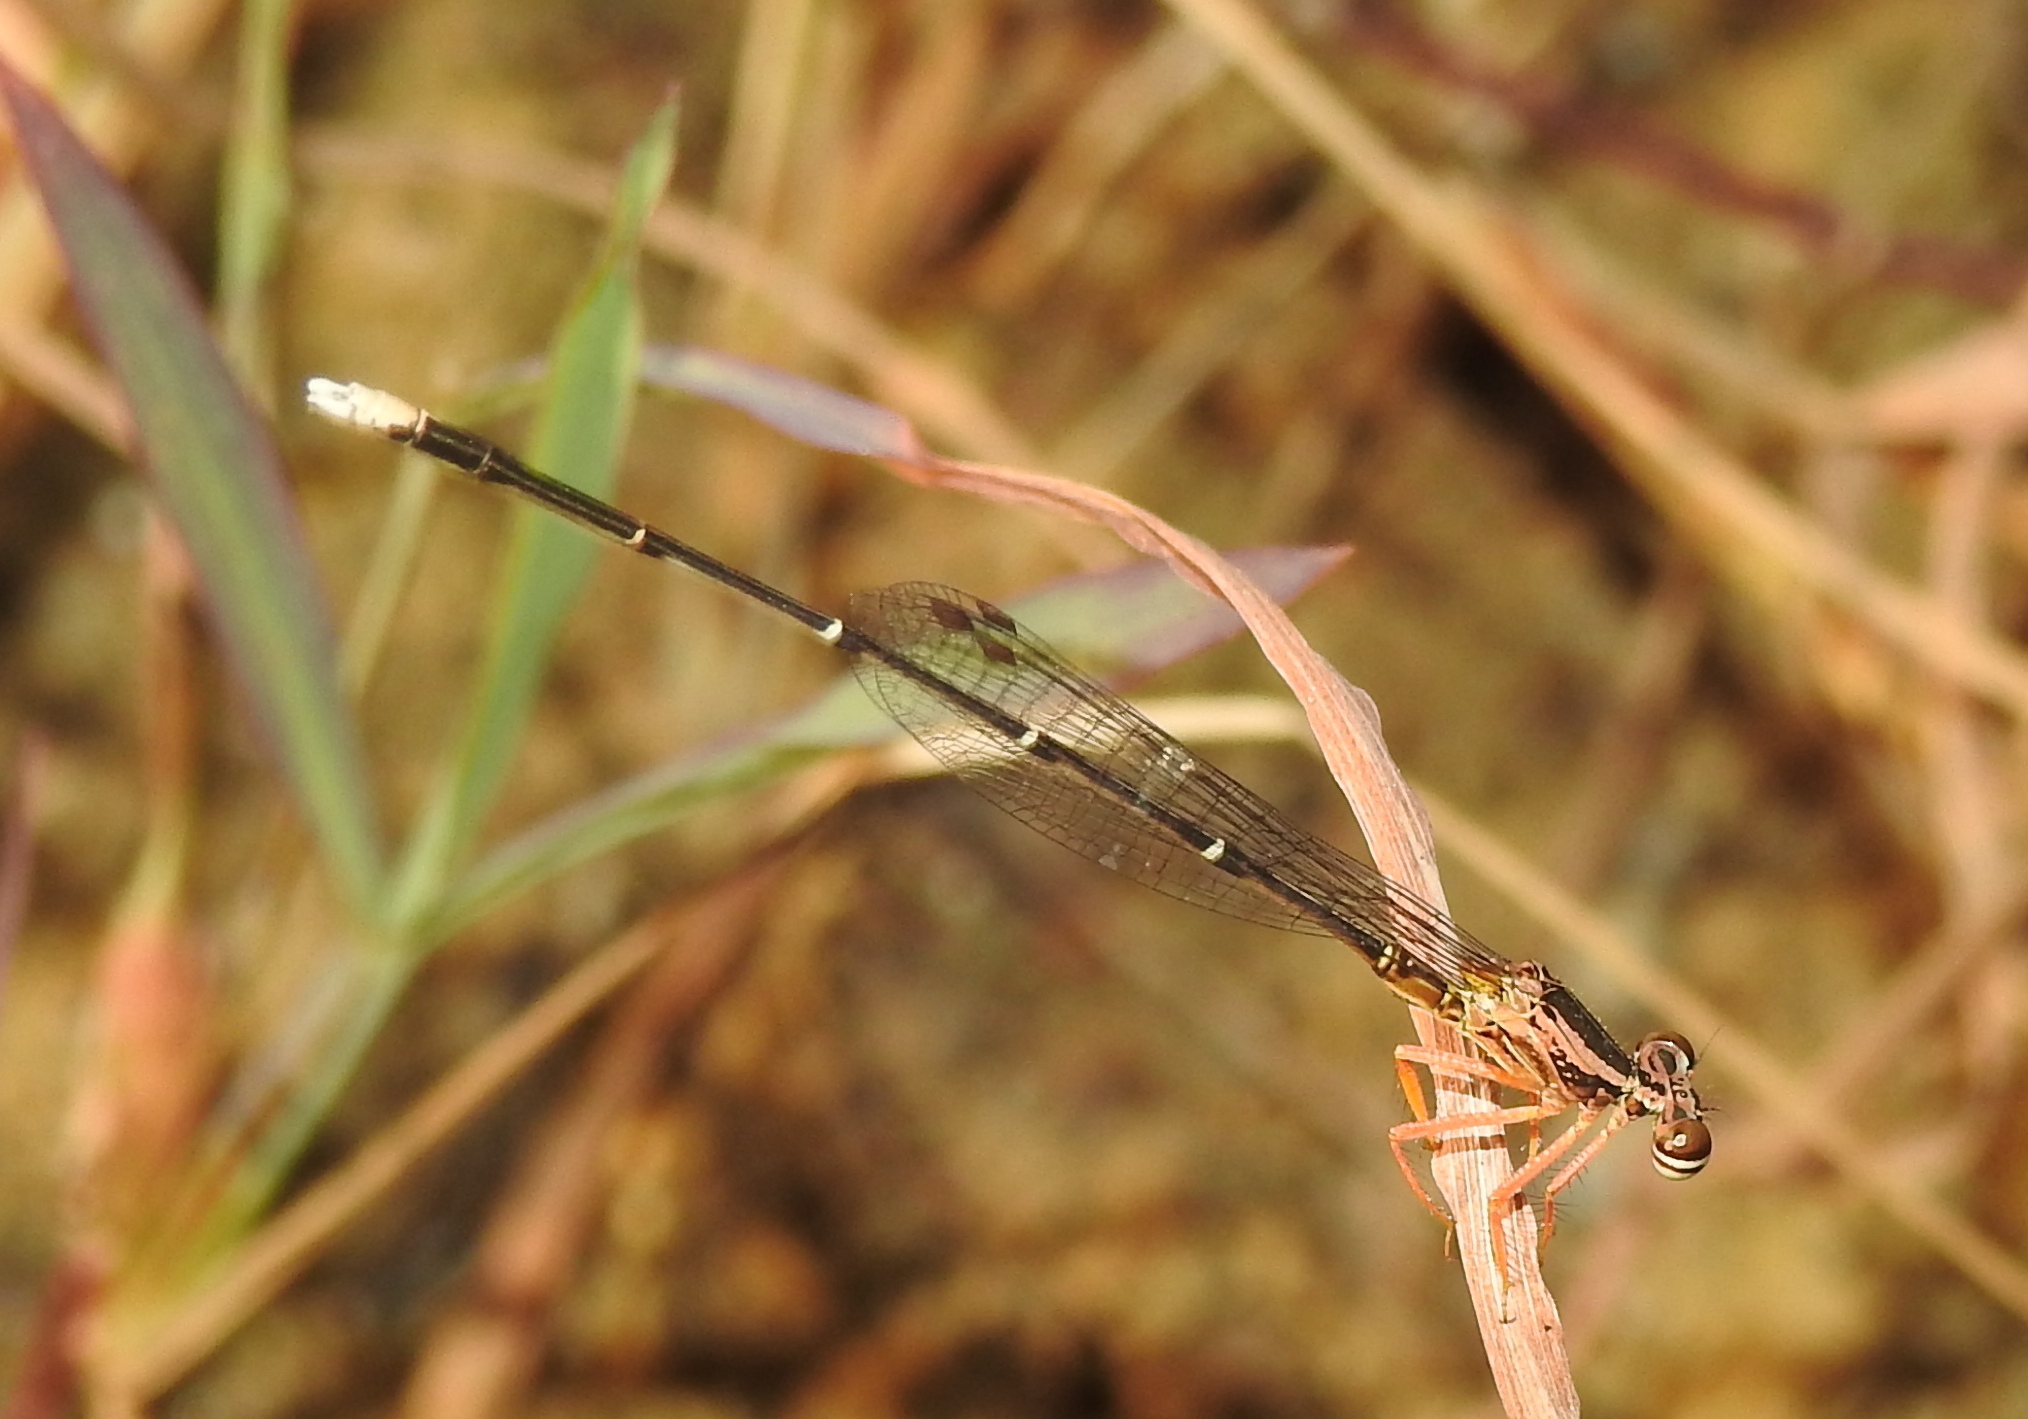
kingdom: Animalia
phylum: Arthropoda
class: Insecta
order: Odonata
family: Platycnemididae
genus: Copera
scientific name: Copera marginipes
